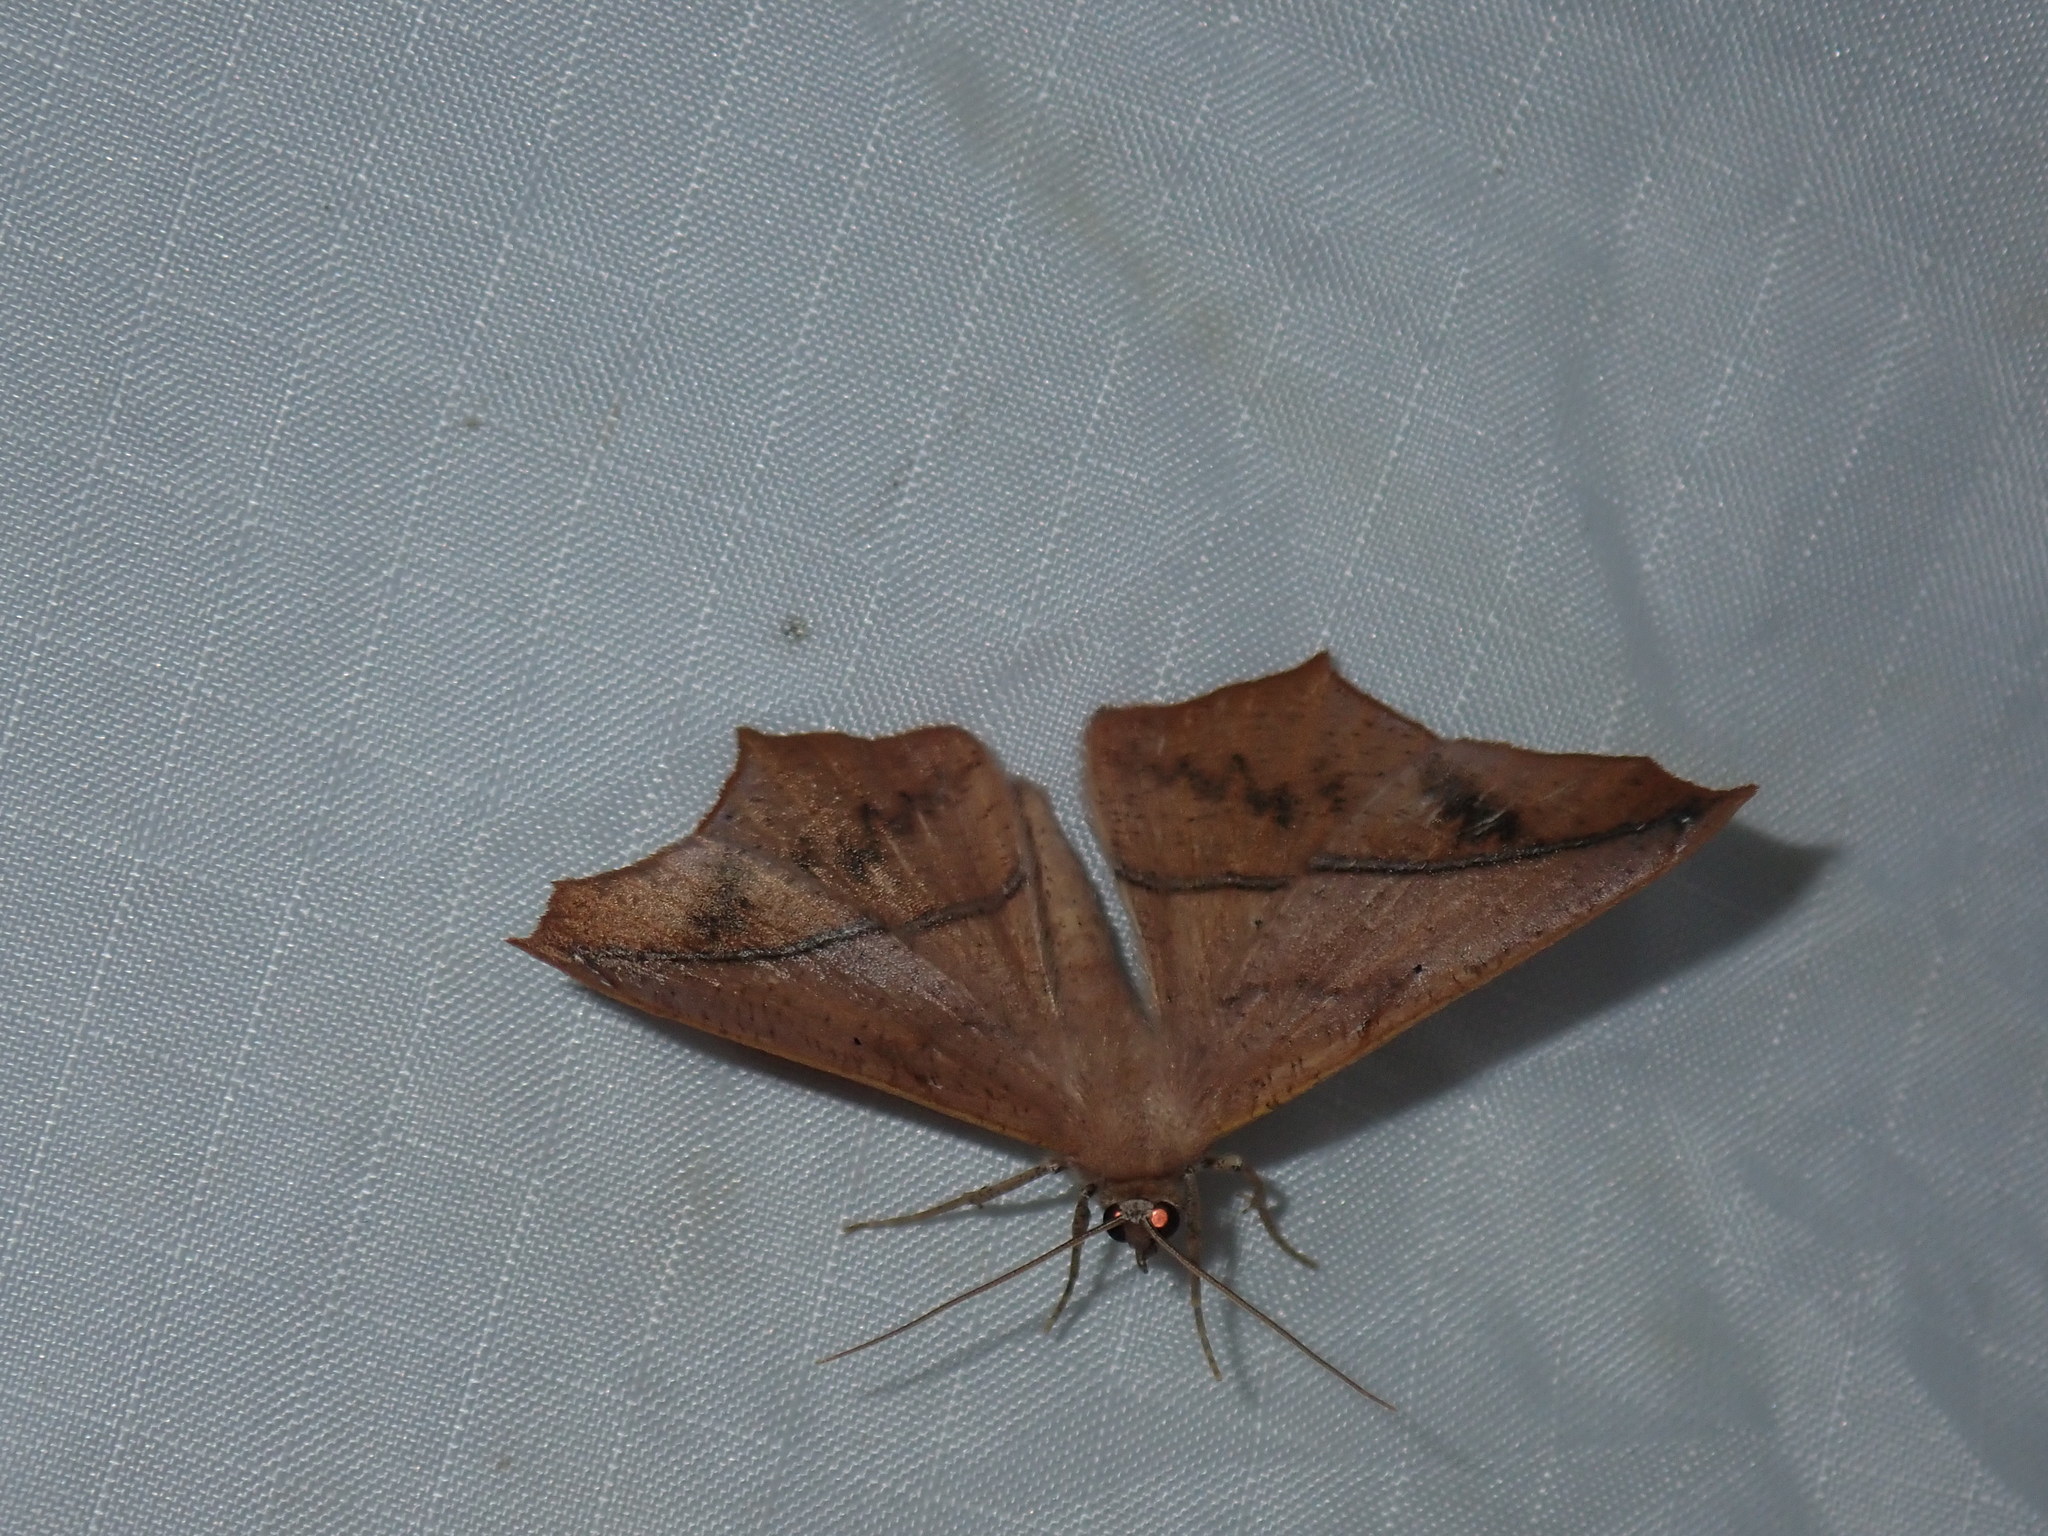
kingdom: Animalia
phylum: Arthropoda
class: Insecta
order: Lepidoptera
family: Geometridae
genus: Prochoerodes
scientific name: Prochoerodes lineola
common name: Large maple spanworm
